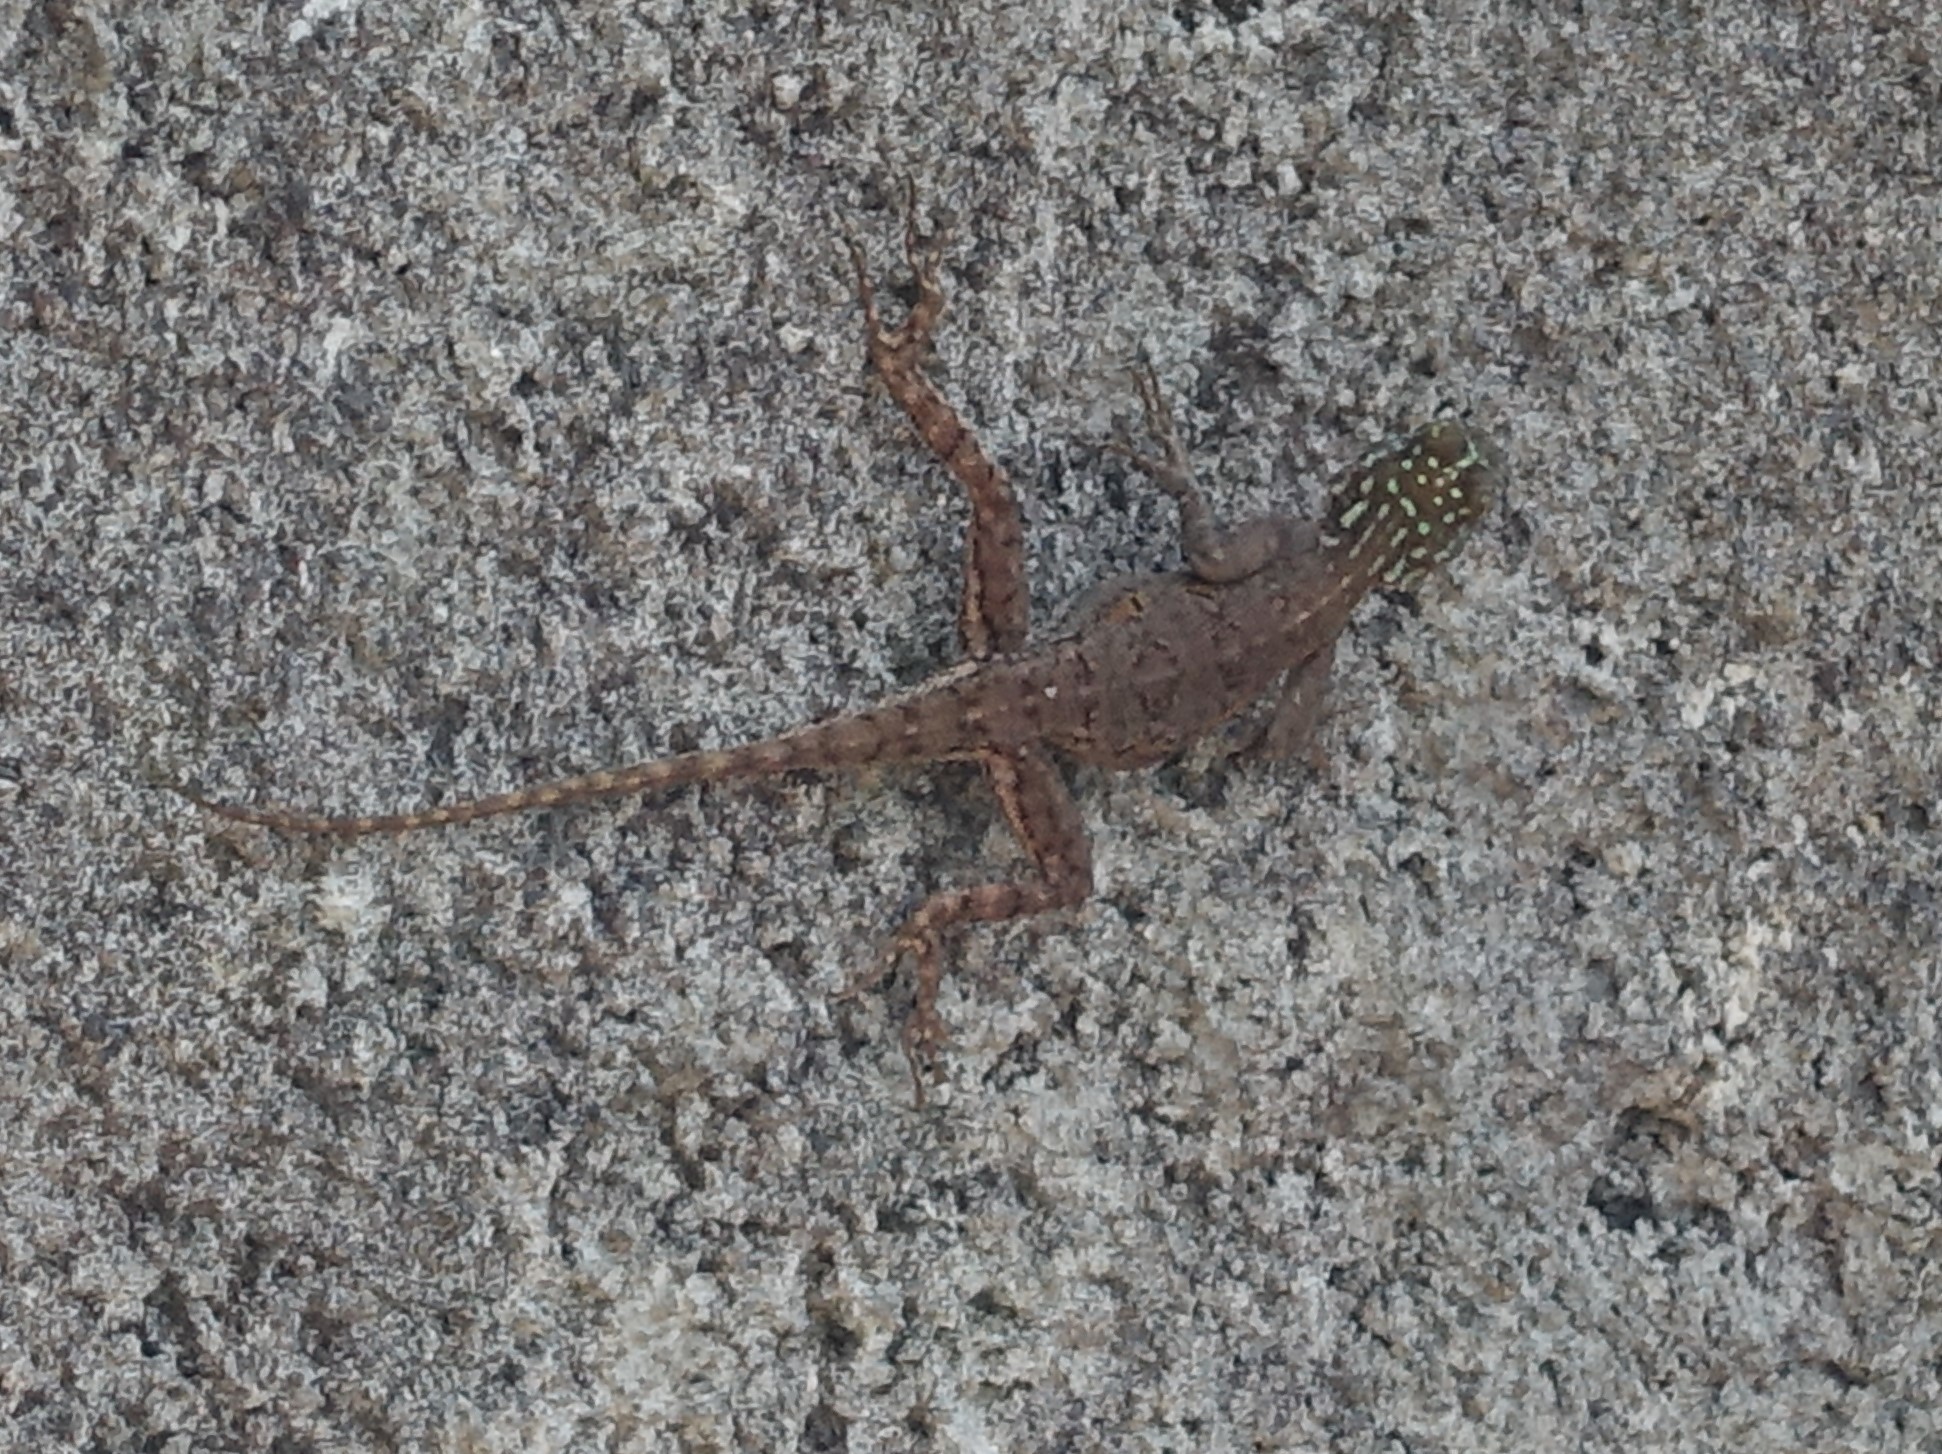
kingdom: Animalia
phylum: Chordata
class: Squamata
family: Agamidae
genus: Agama
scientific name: Agama picticauda
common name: Red-headed agama
